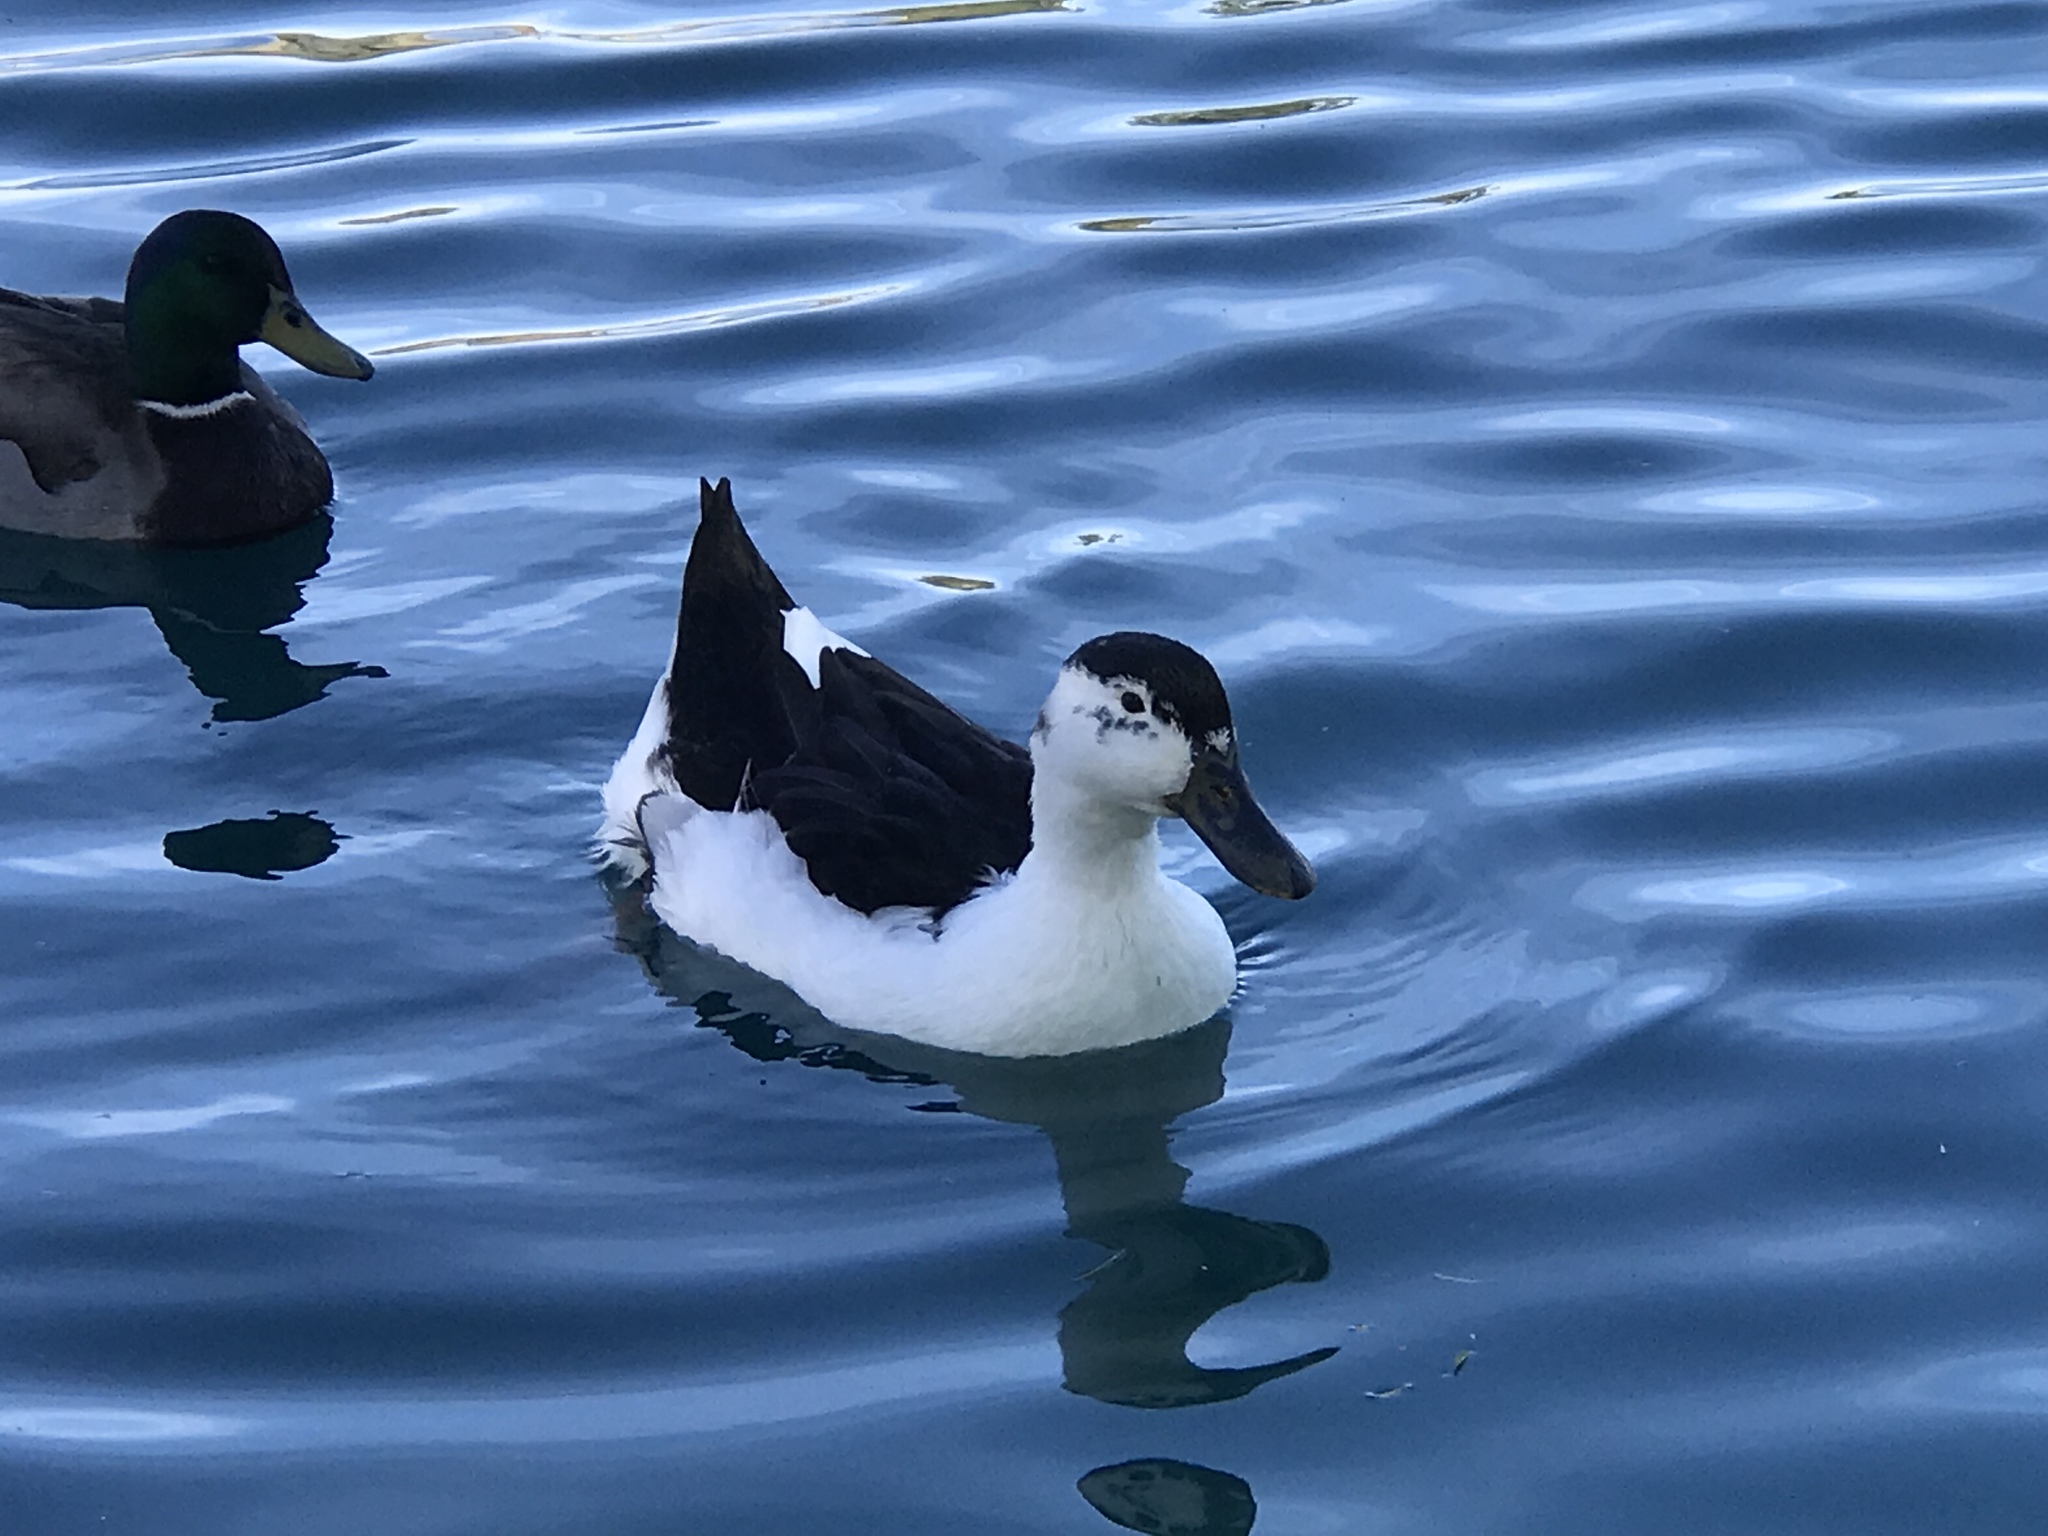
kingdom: Animalia
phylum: Chordata
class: Aves
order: Anseriformes
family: Anatidae
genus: Anas
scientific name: Anas platyrhynchos
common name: Mallard
